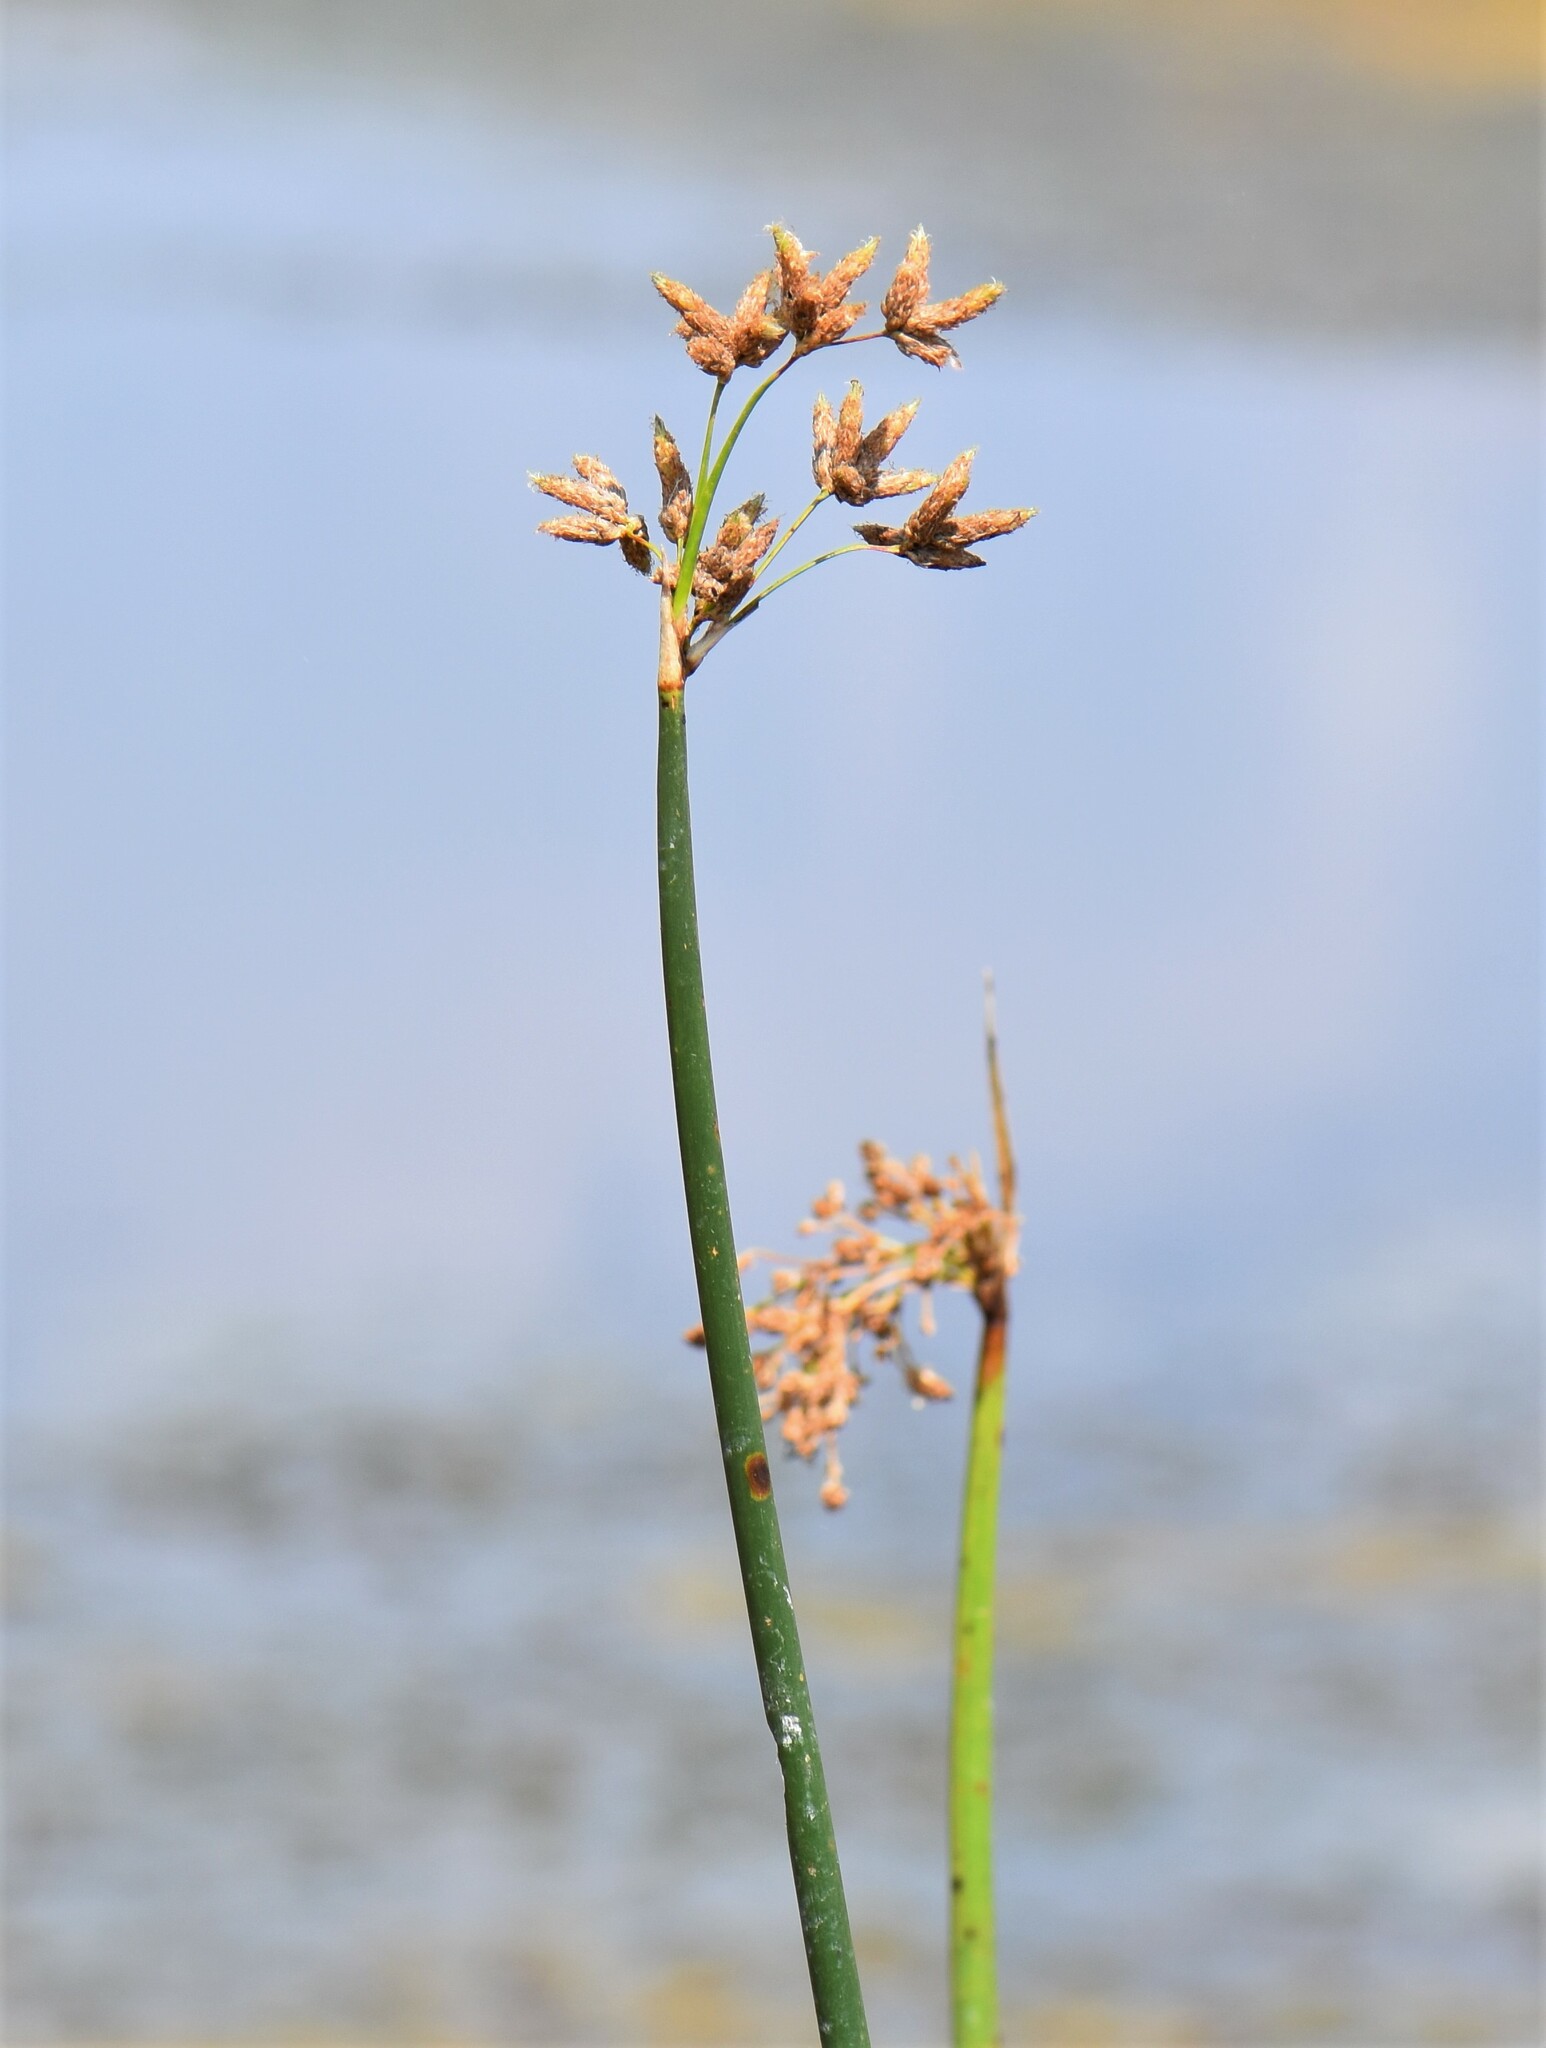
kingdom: Plantae
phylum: Tracheophyta
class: Liliopsida
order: Poales
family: Cyperaceae
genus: Schoenoplectus
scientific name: Schoenoplectus tabernaemontani
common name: Grey club-rush
